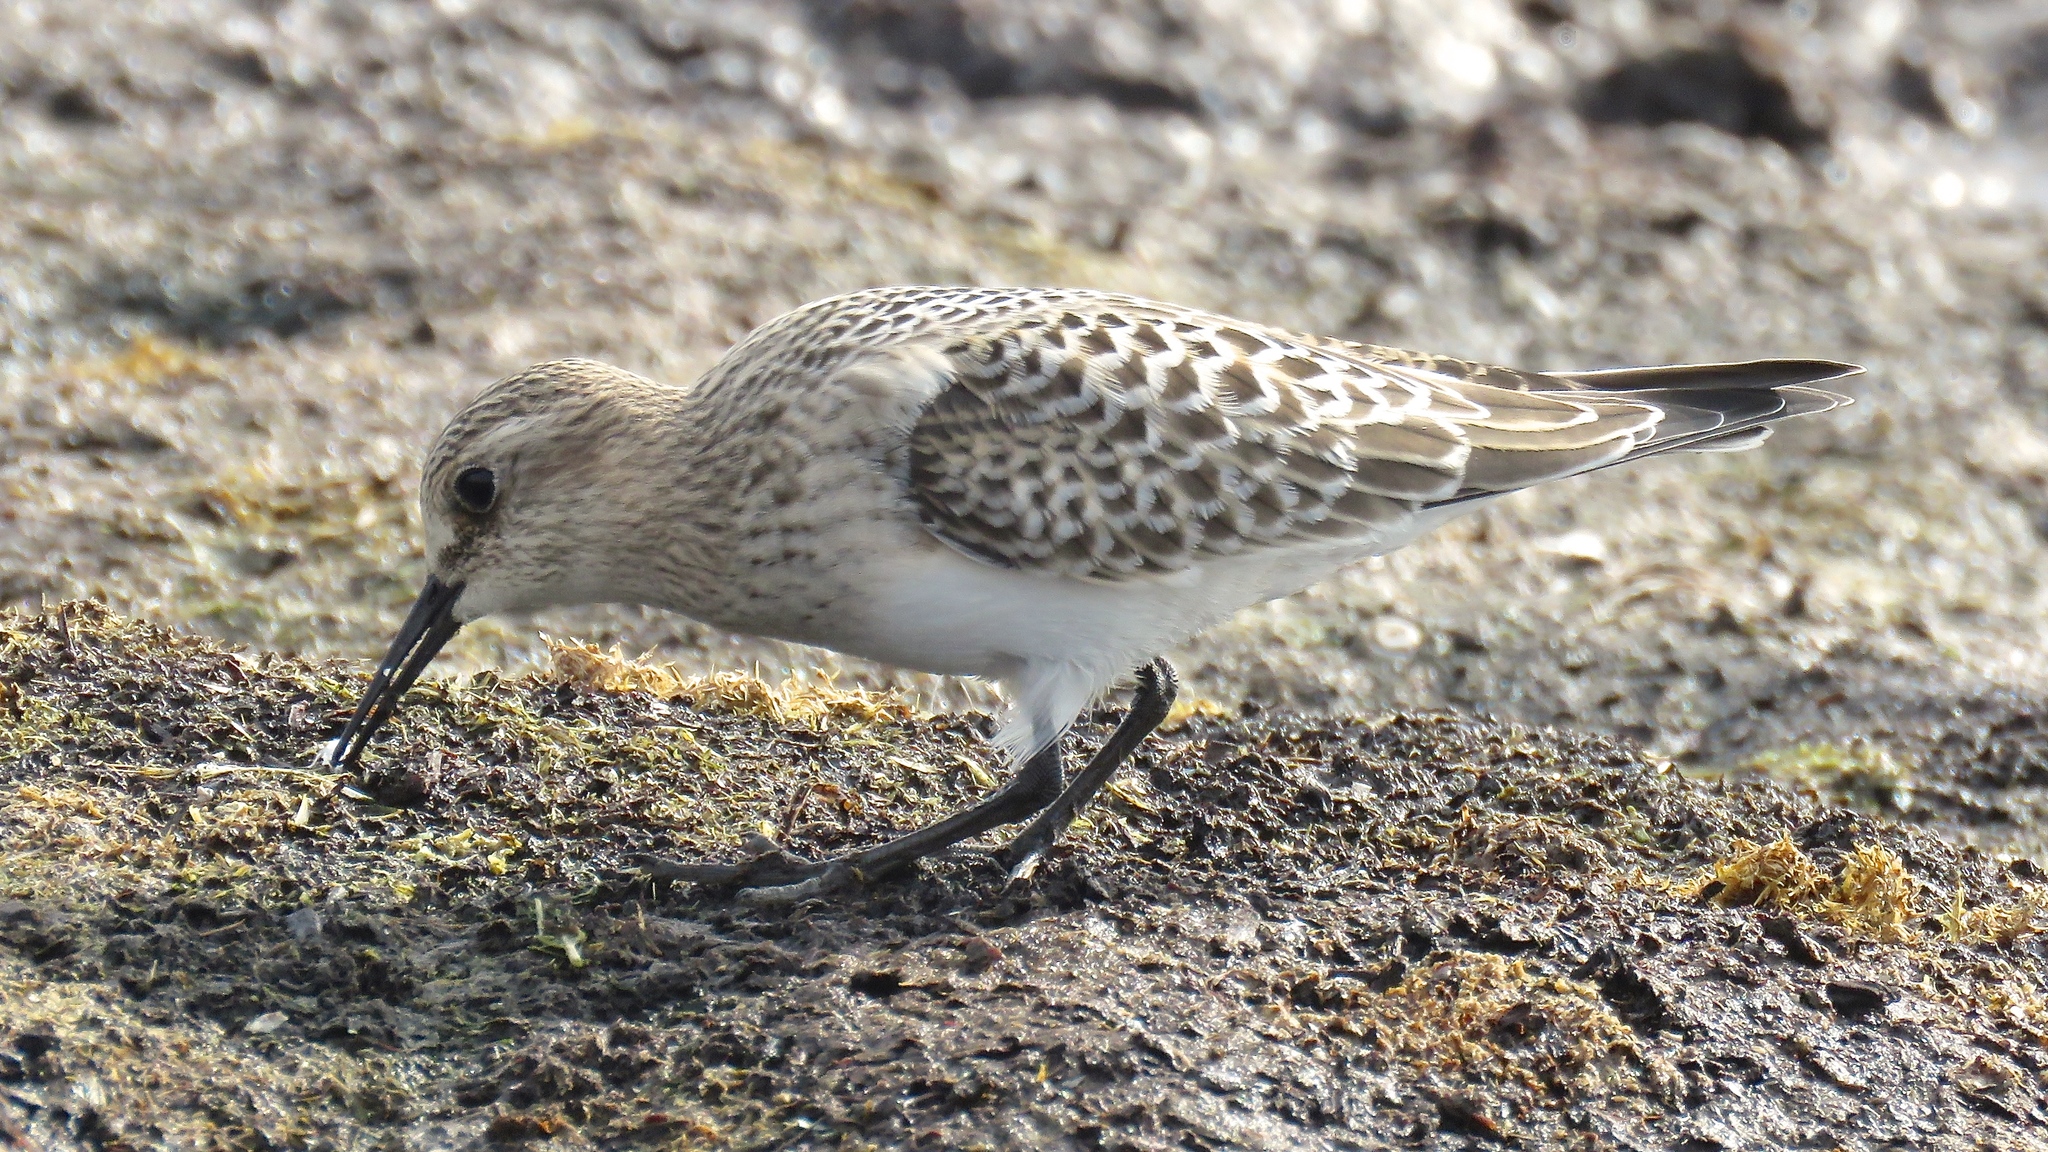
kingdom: Animalia
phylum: Chordata
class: Aves
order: Charadriiformes
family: Scolopacidae
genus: Calidris
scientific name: Calidris bairdii
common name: Baird's sandpiper
